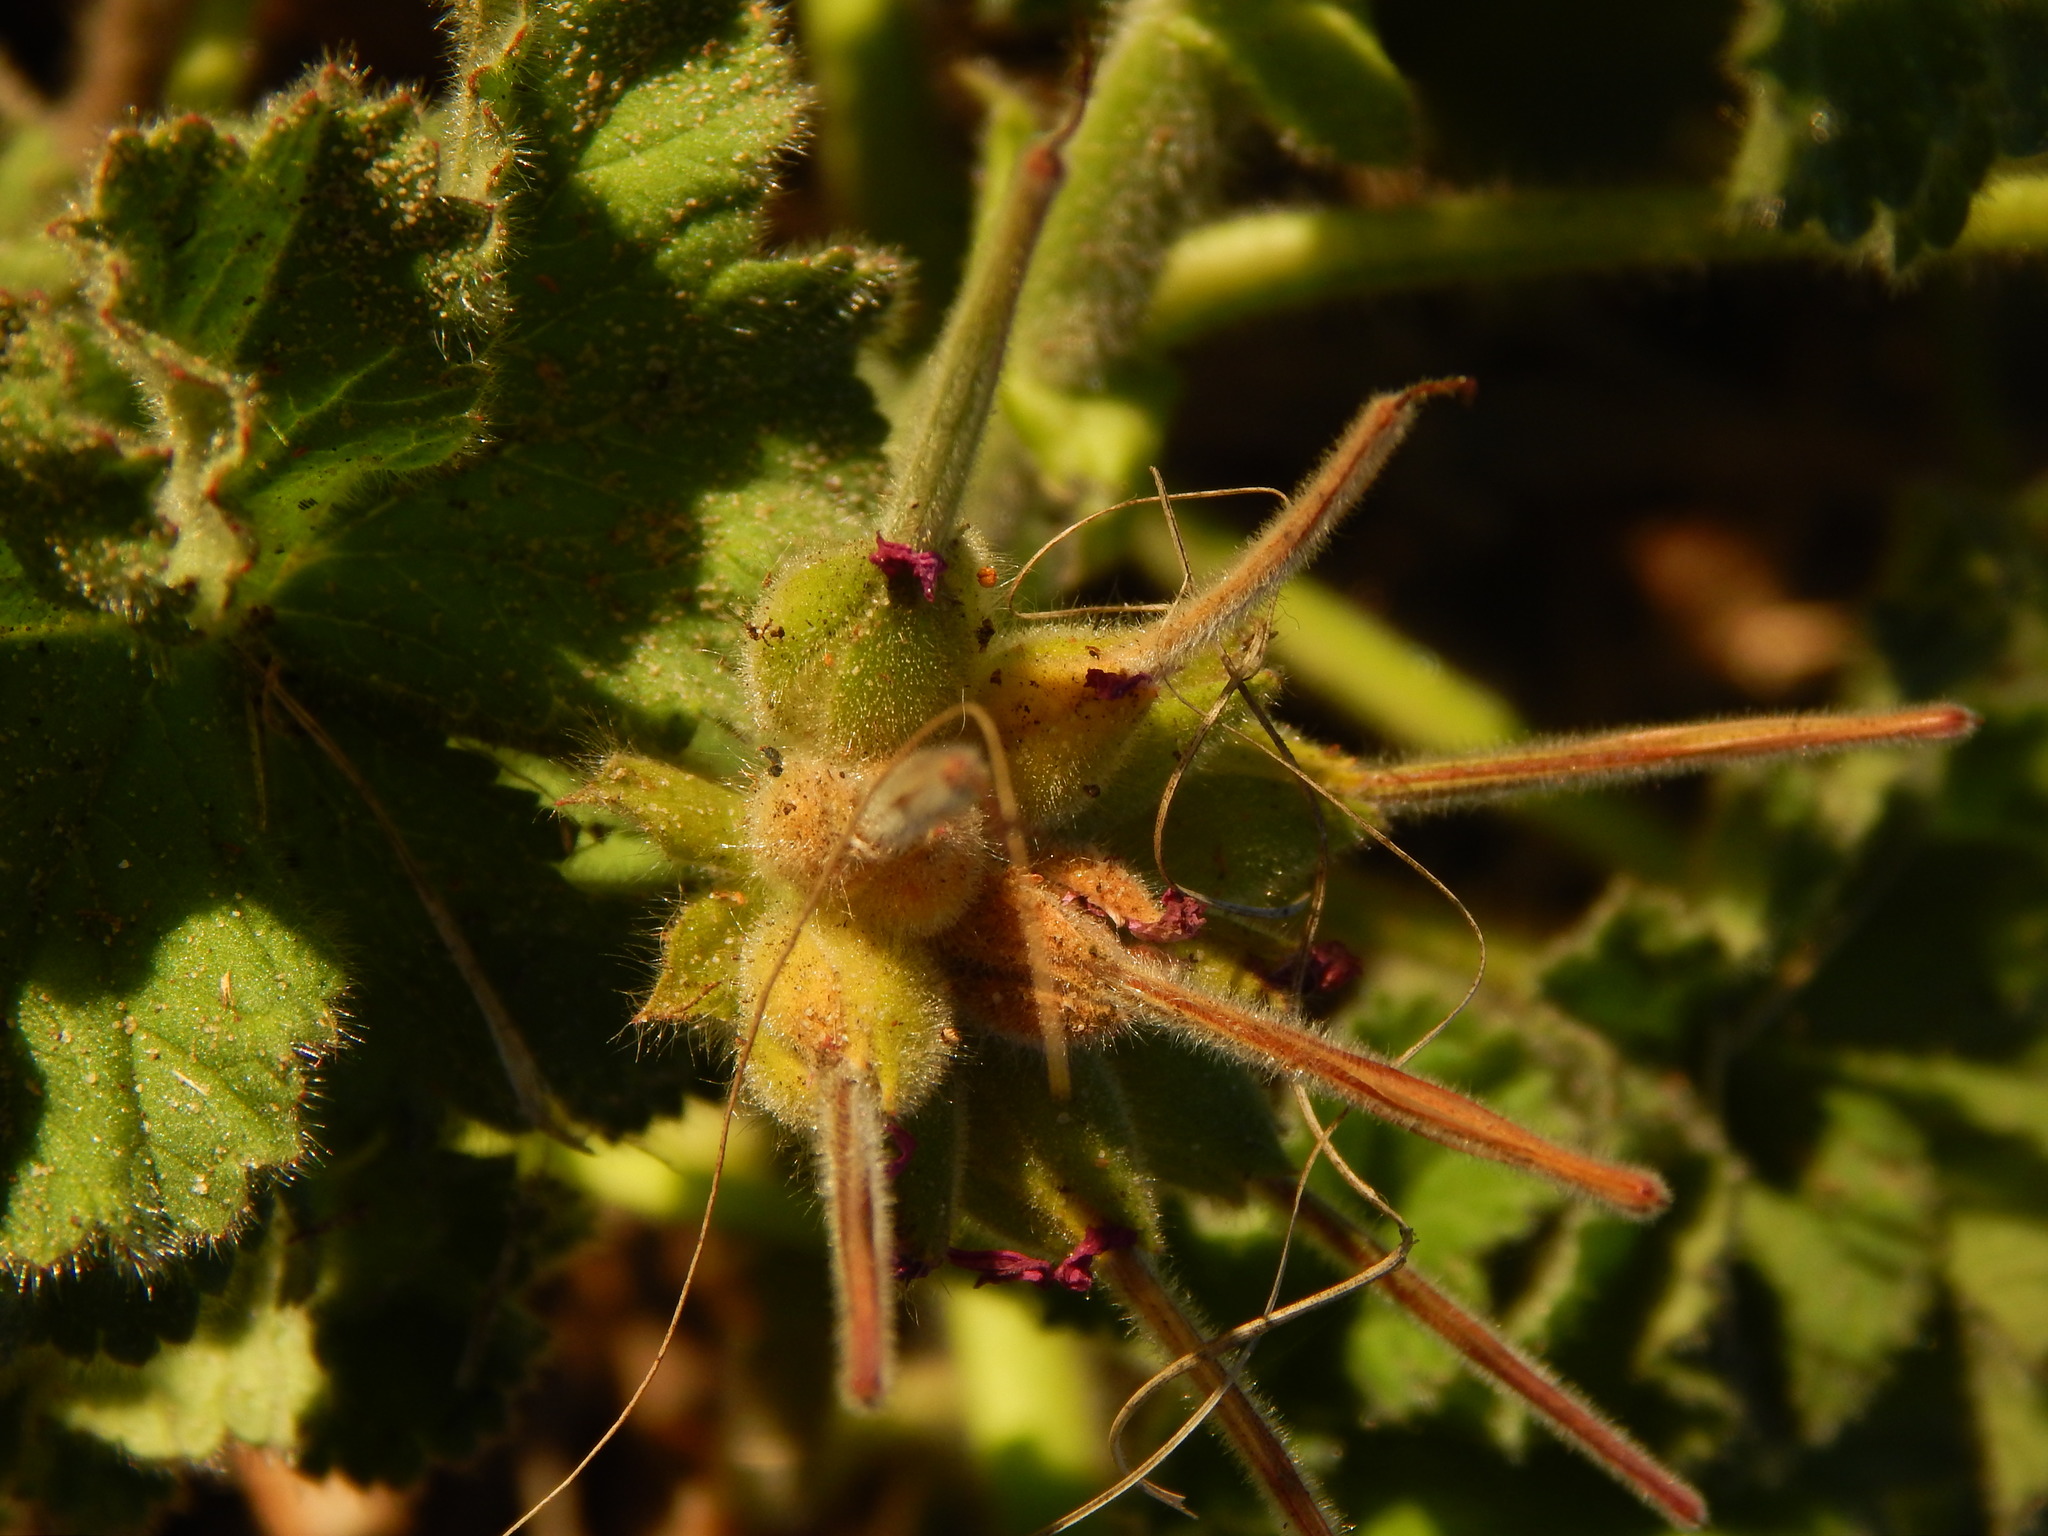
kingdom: Plantae
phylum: Tracheophyta
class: Magnoliopsida
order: Geraniales
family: Geraniaceae
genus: Pelargonium
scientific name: Pelargonium capitatum
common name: Rose scented geranium
